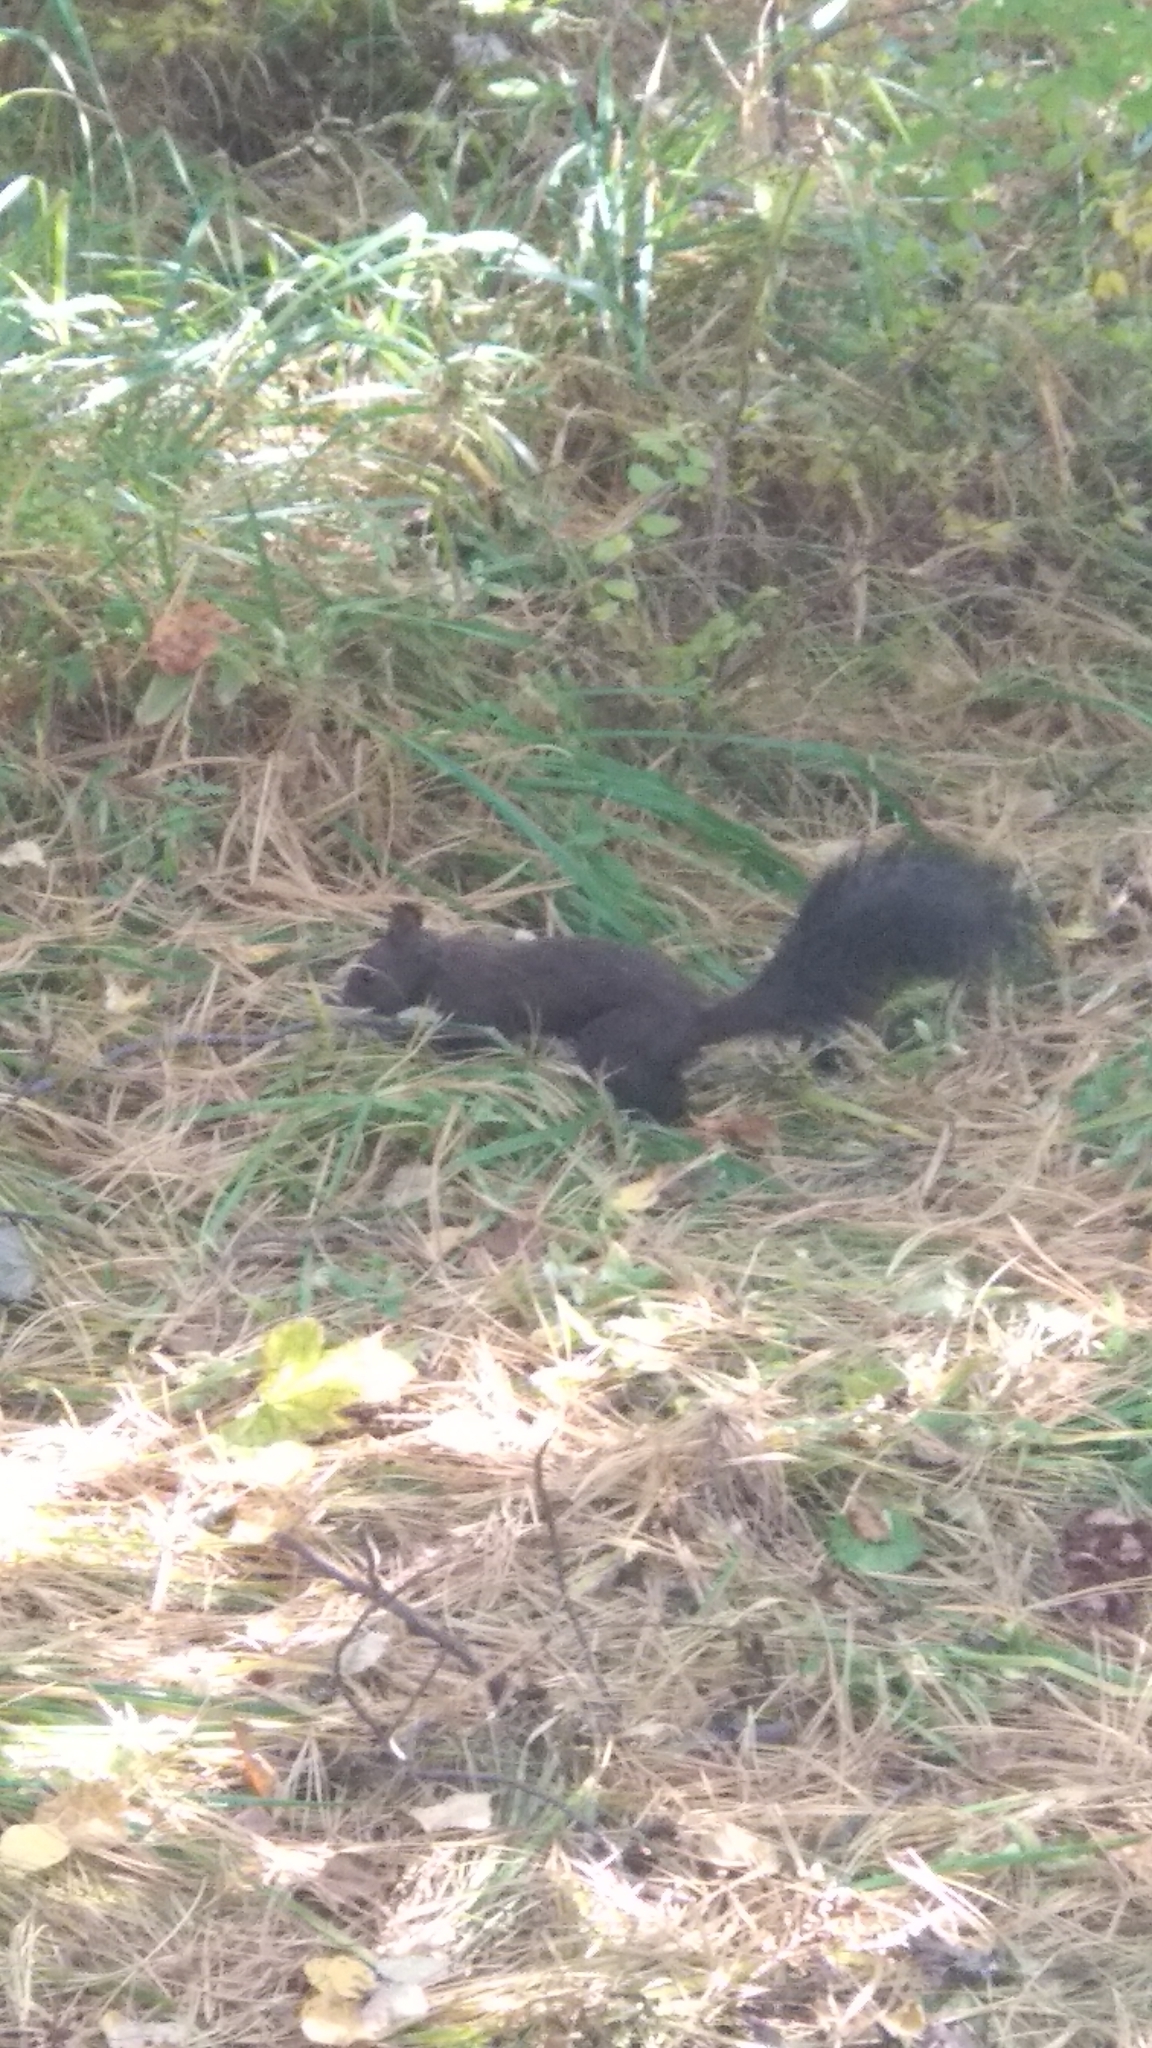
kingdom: Animalia
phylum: Chordata
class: Mammalia
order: Rodentia
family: Sciuridae
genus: Sciurus
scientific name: Sciurus vulgaris
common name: Eurasian red squirrel
